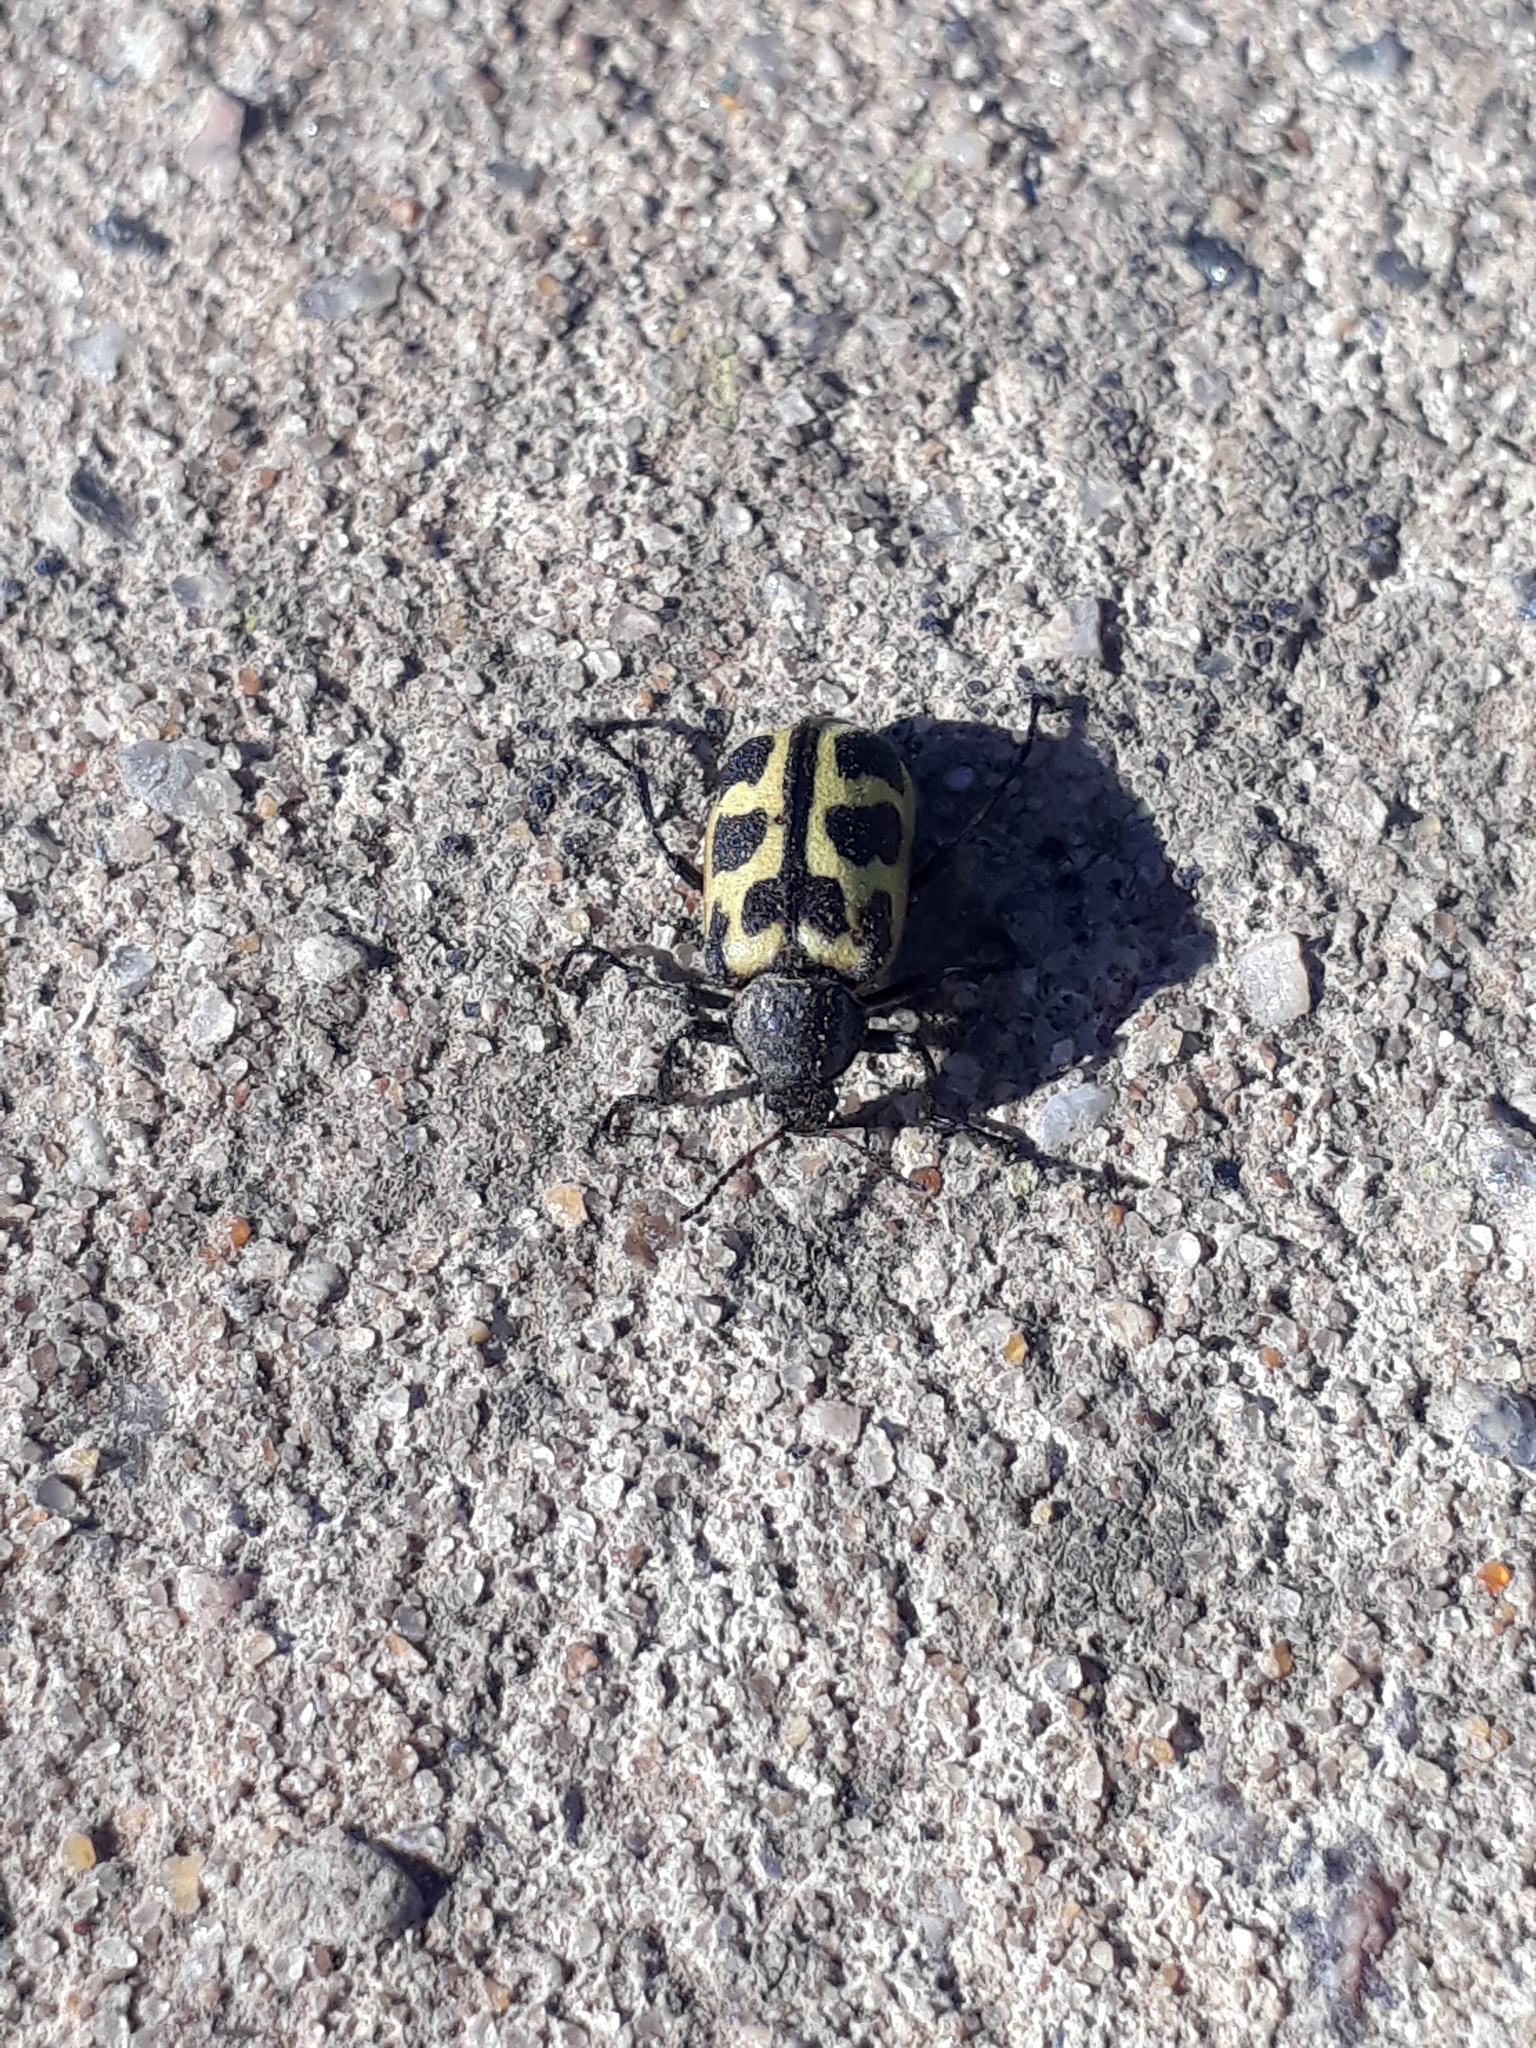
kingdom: Animalia
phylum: Arthropoda
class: Insecta
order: Coleoptera
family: Melyridae
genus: Astylus
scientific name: Astylus atromaculatus
